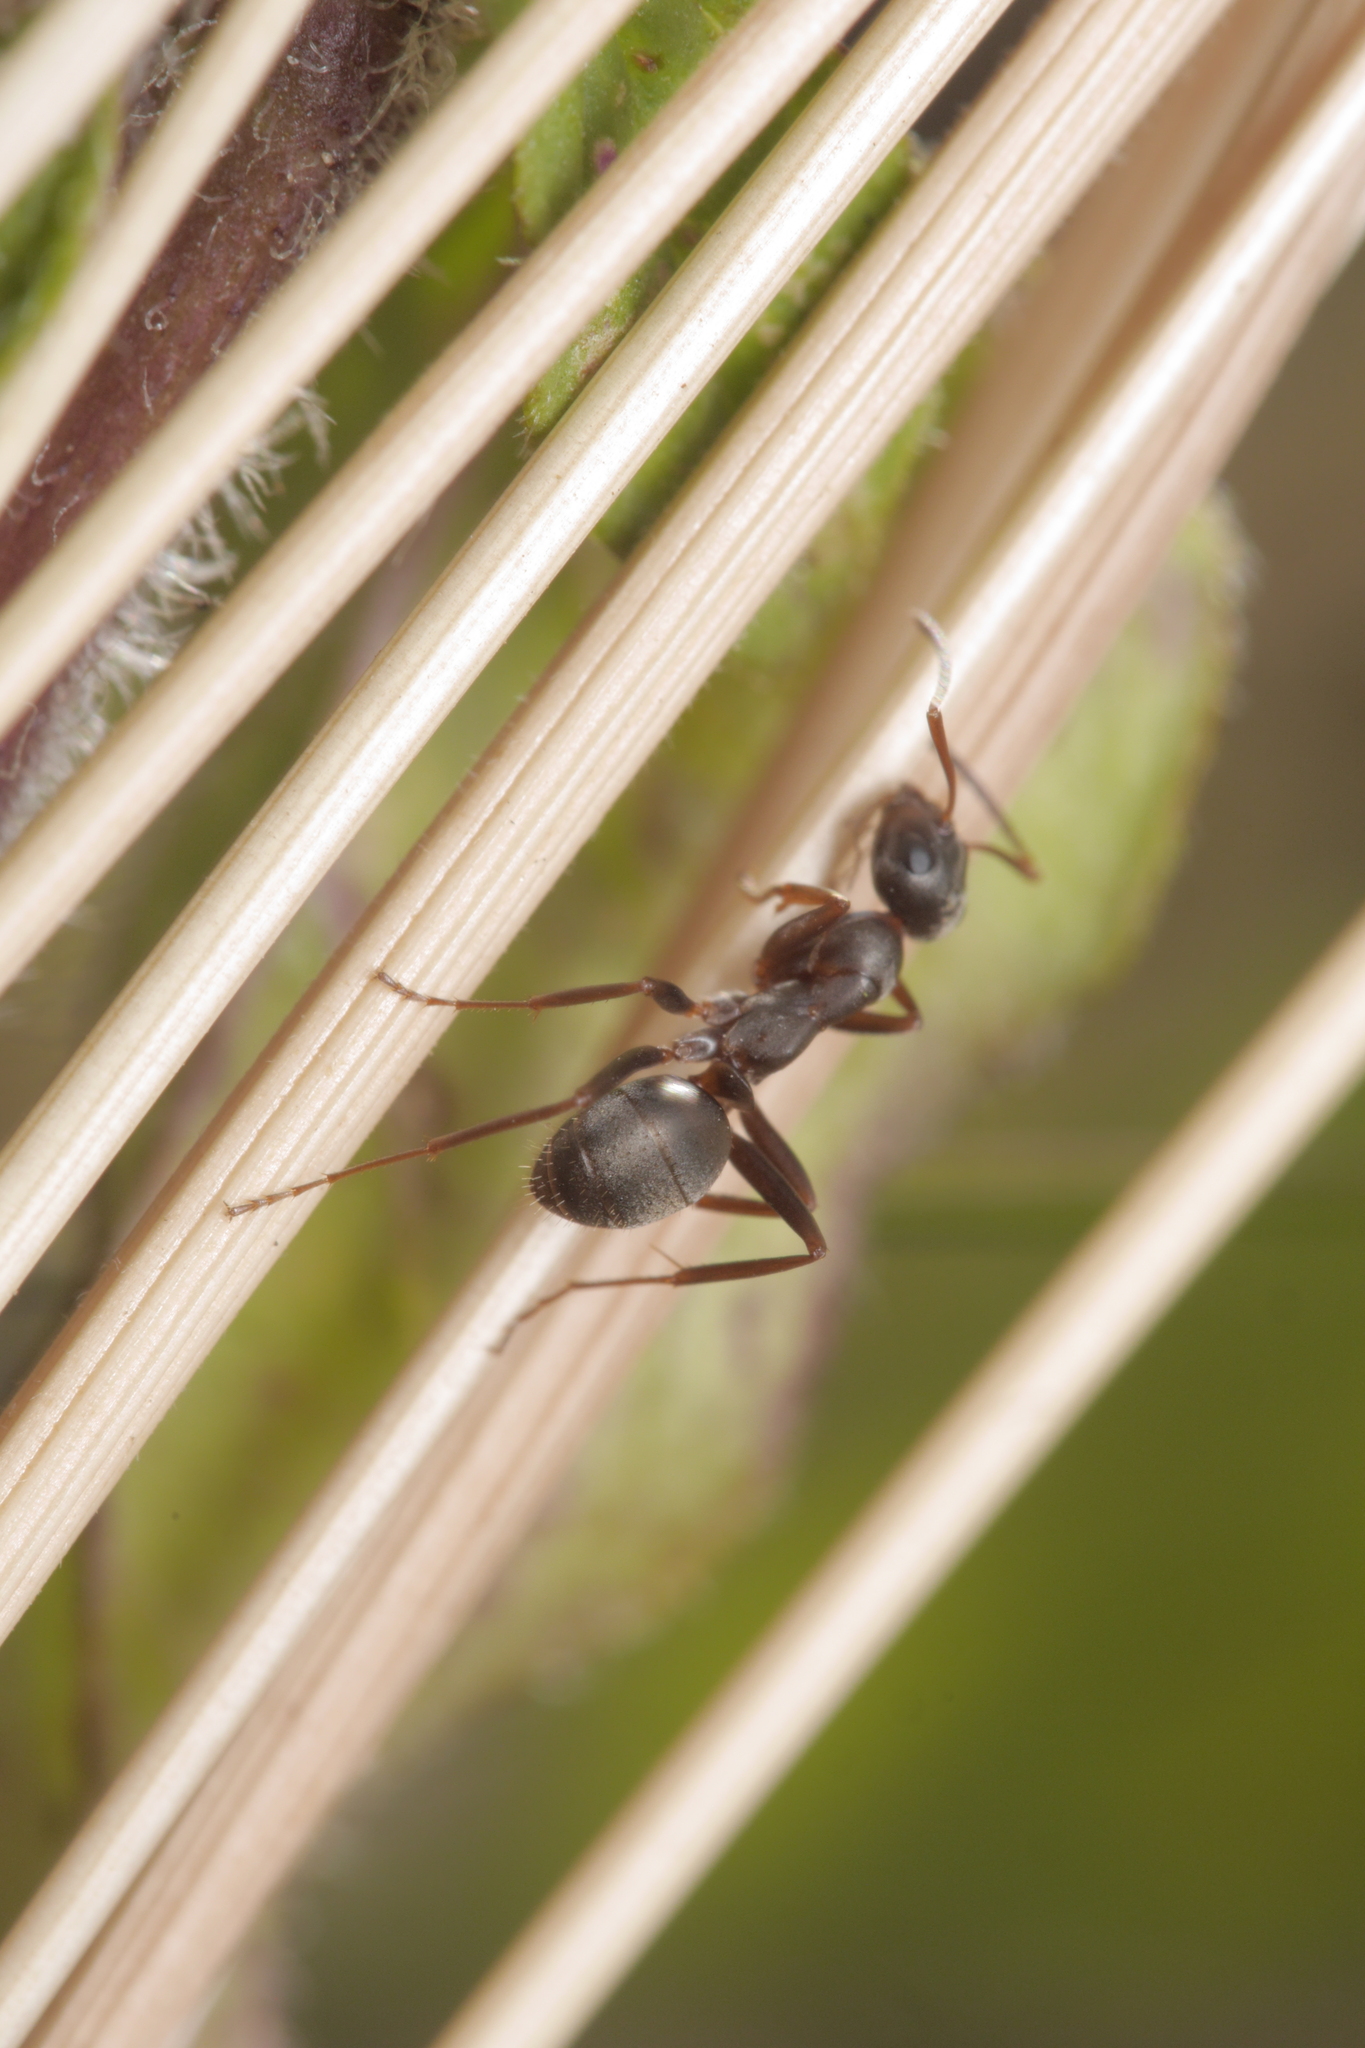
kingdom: Animalia
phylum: Arthropoda
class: Insecta
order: Hymenoptera
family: Formicidae
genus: Formica
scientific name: Formica cunicularia
